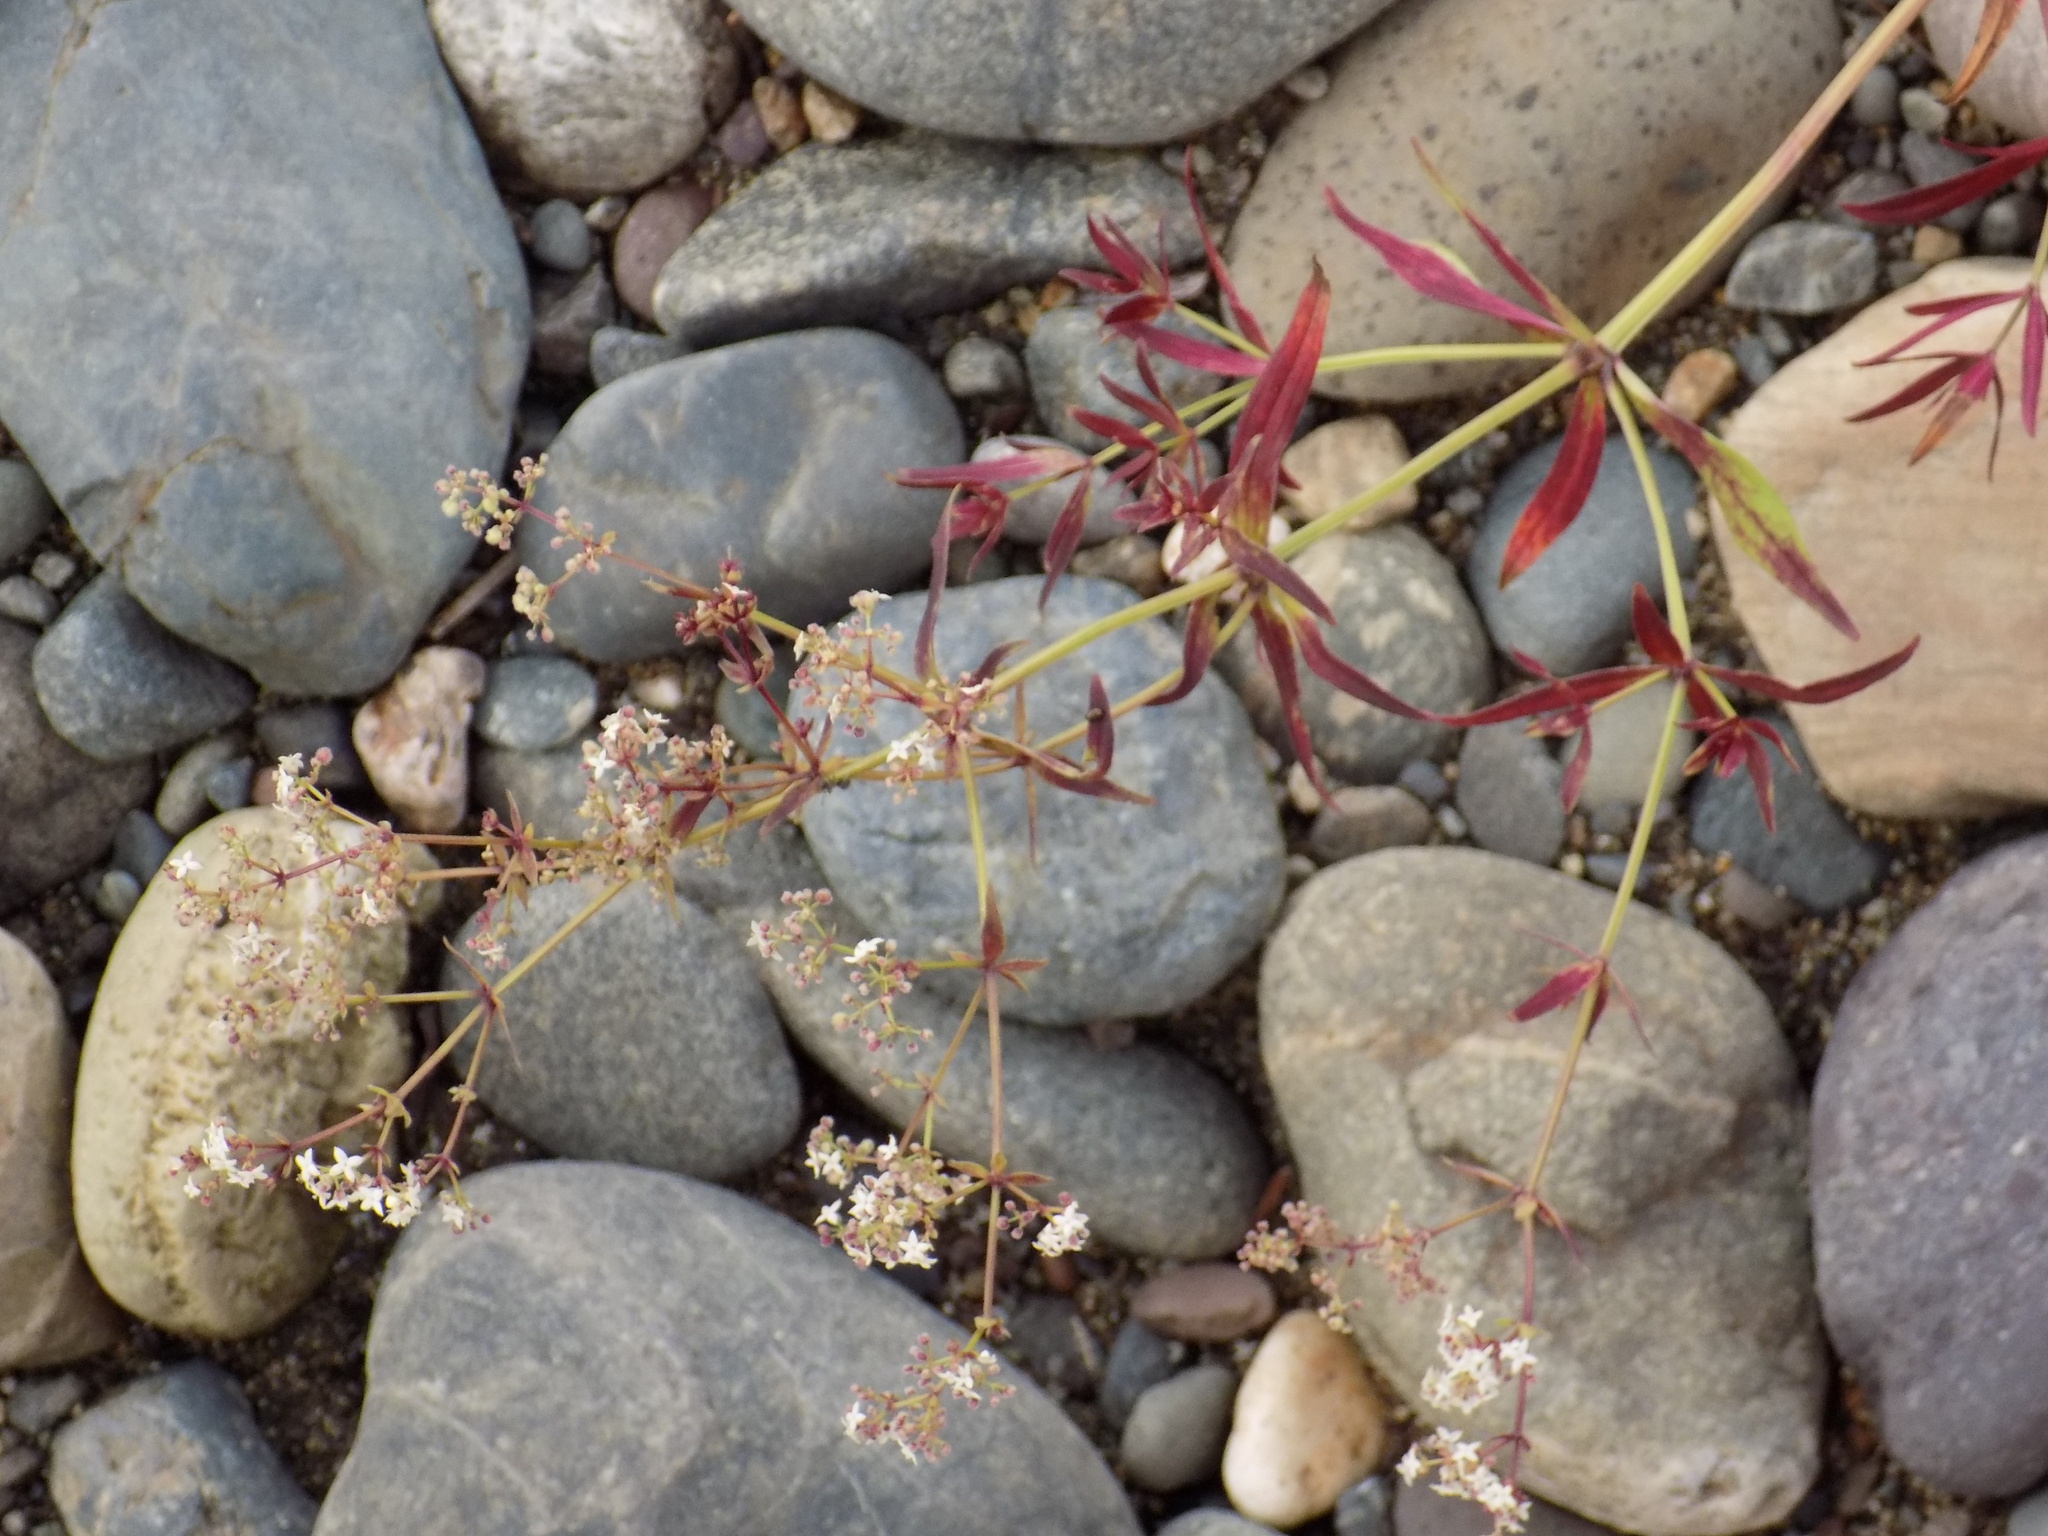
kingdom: Plantae
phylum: Tracheophyta
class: Magnoliopsida
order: Gentianales
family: Rubiaceae
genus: Galium
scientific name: Galium boreale
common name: Northern bedstraw
